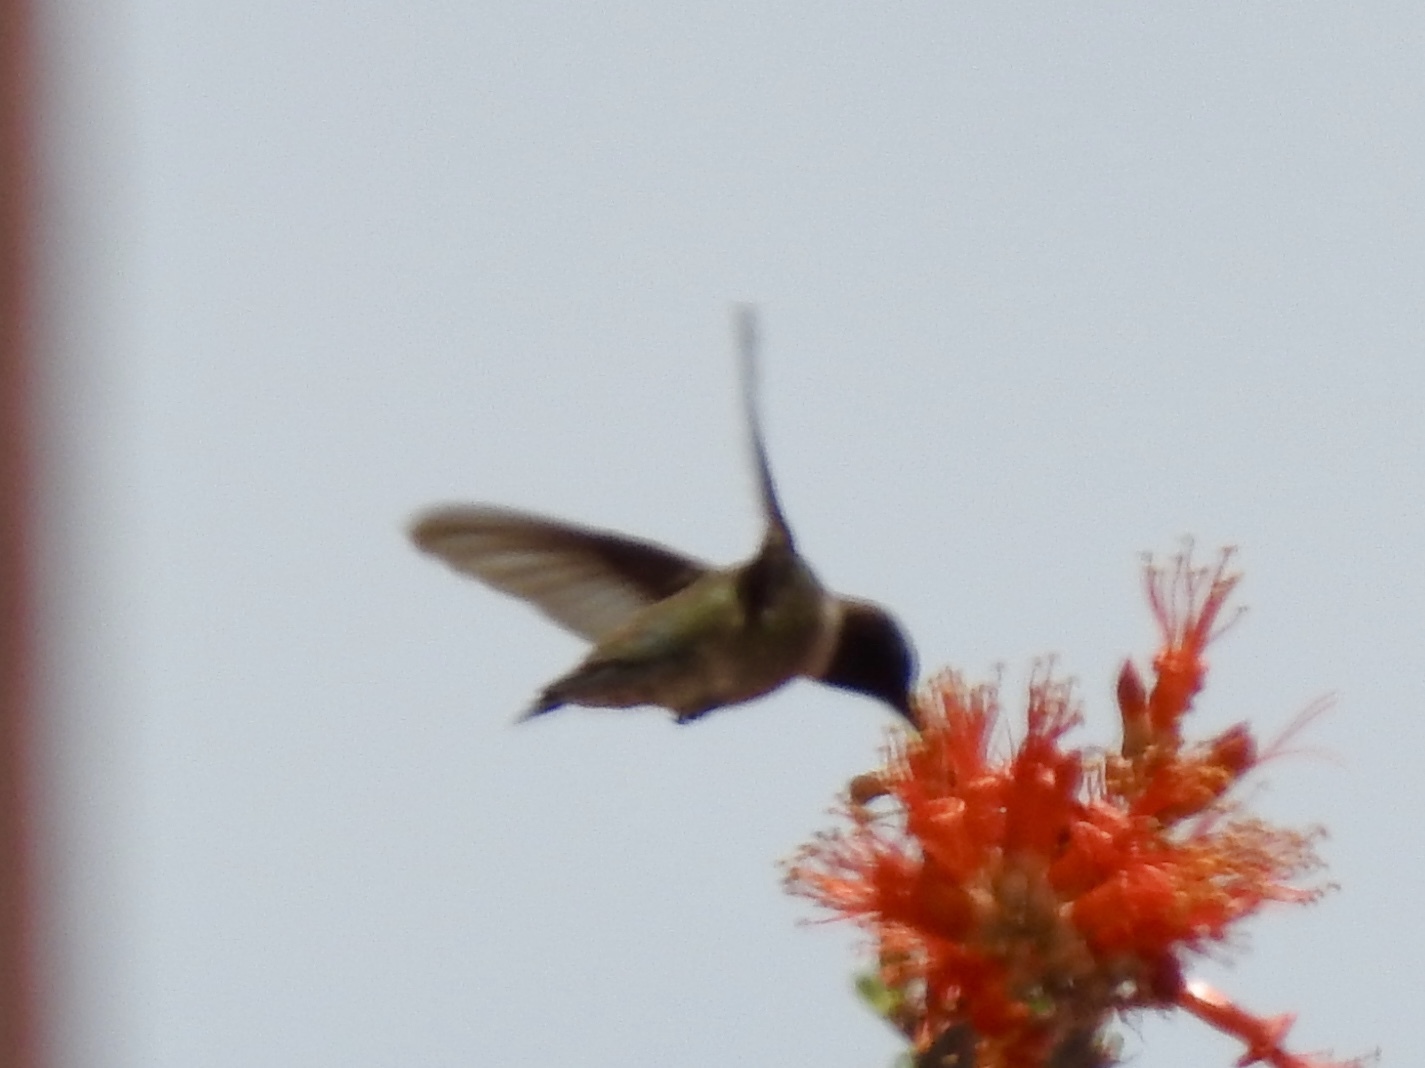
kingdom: Animalia
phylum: Chordata
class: Aves
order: Apodiformes
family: Trochilidae
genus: Archilochus
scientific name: Archilochus alexandri
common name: Black-chinned hummingbird
